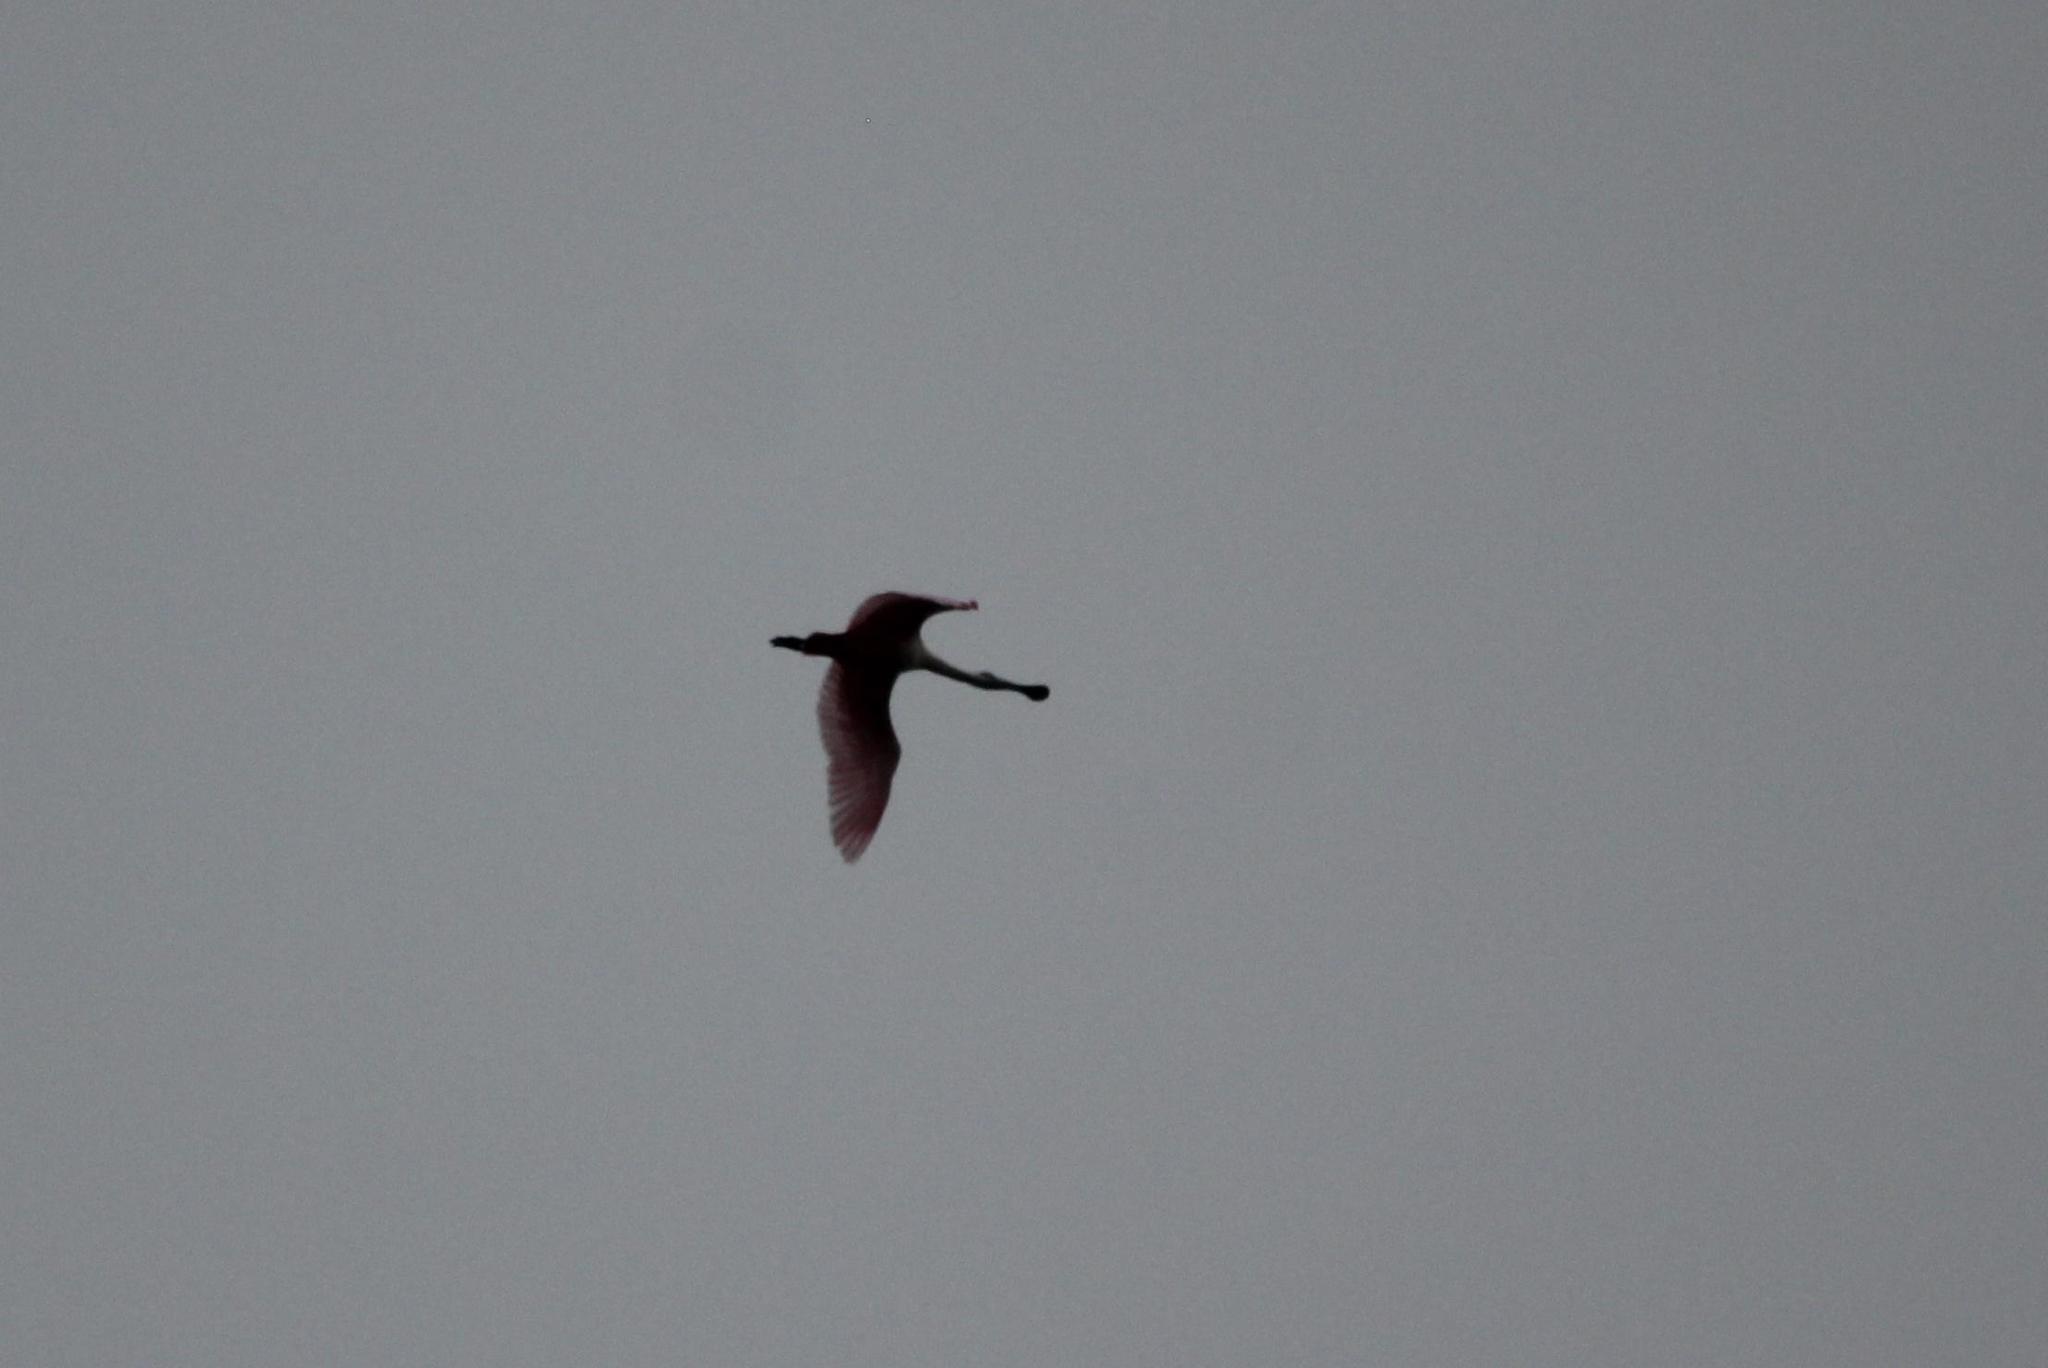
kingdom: Animalia
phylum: Chordata
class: Aves
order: Pelecaniformes
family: Threskiornithidae
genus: Platalea
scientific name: Platalea ajaja
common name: Roseate spoonbill
